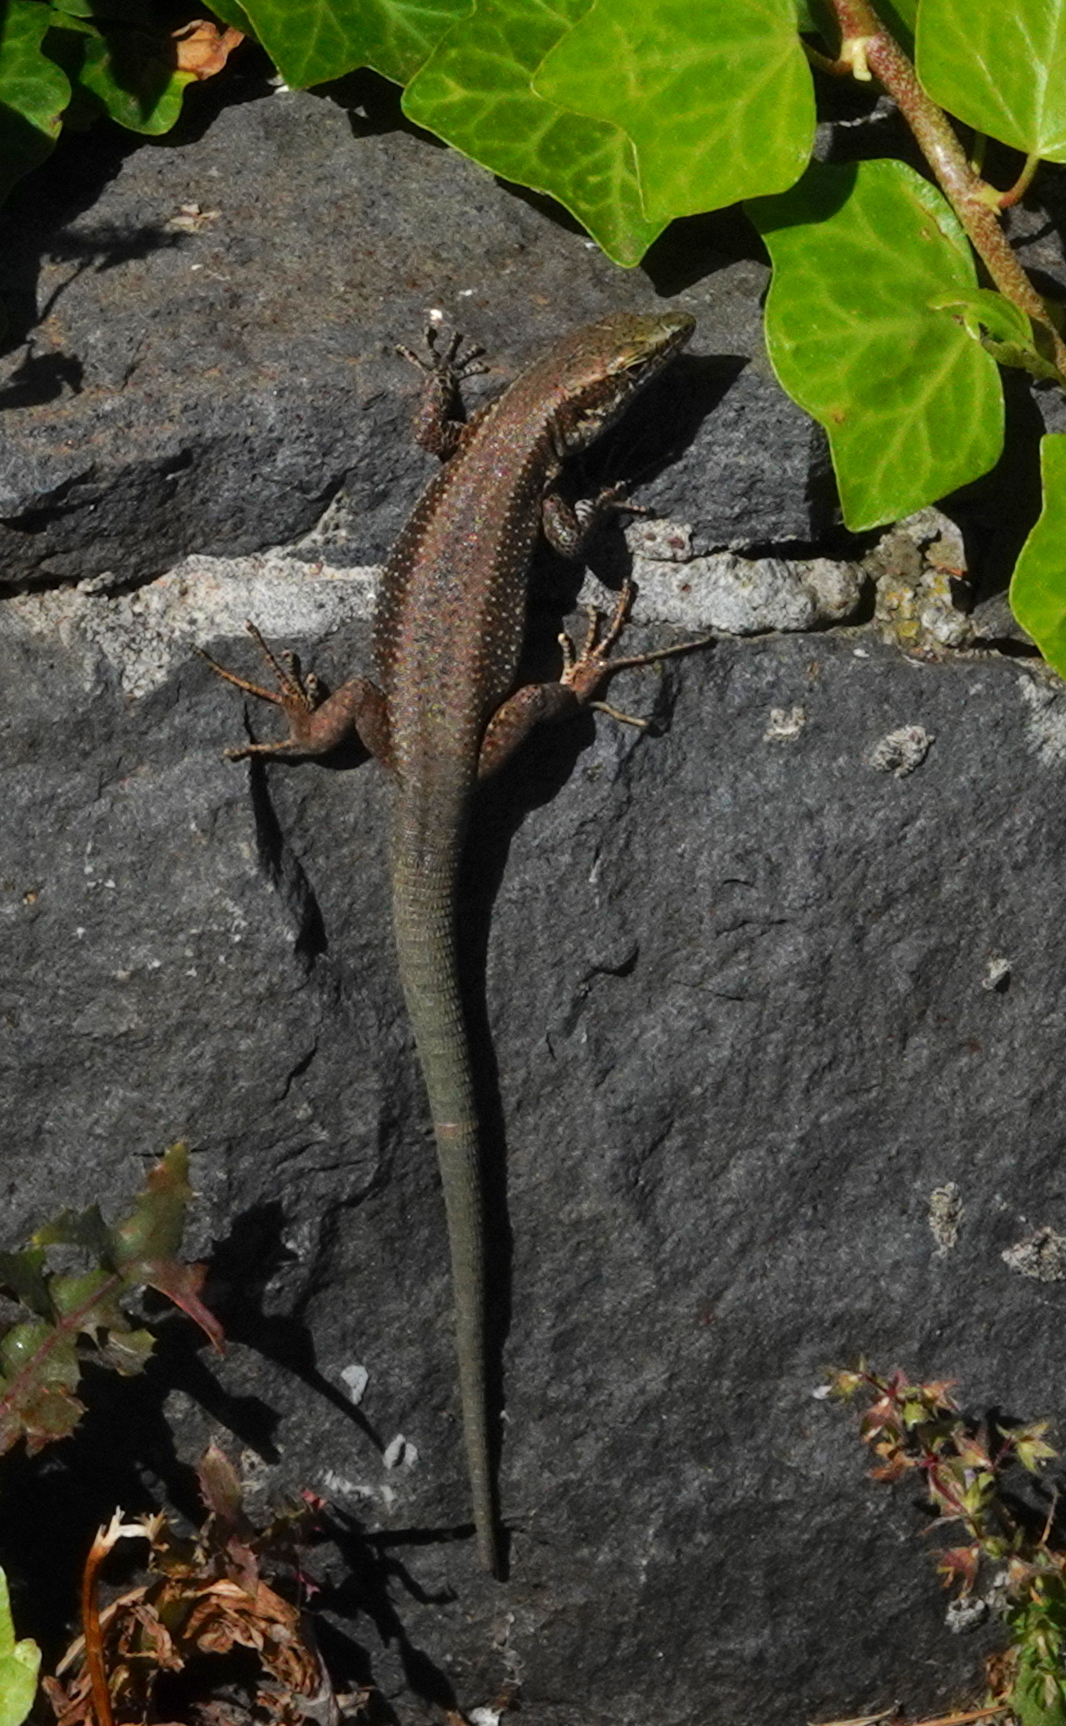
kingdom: Animalia
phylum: Chordata
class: Squamata
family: Lacertidae
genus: Teira
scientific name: Teira dugesii
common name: Madeira lizard
